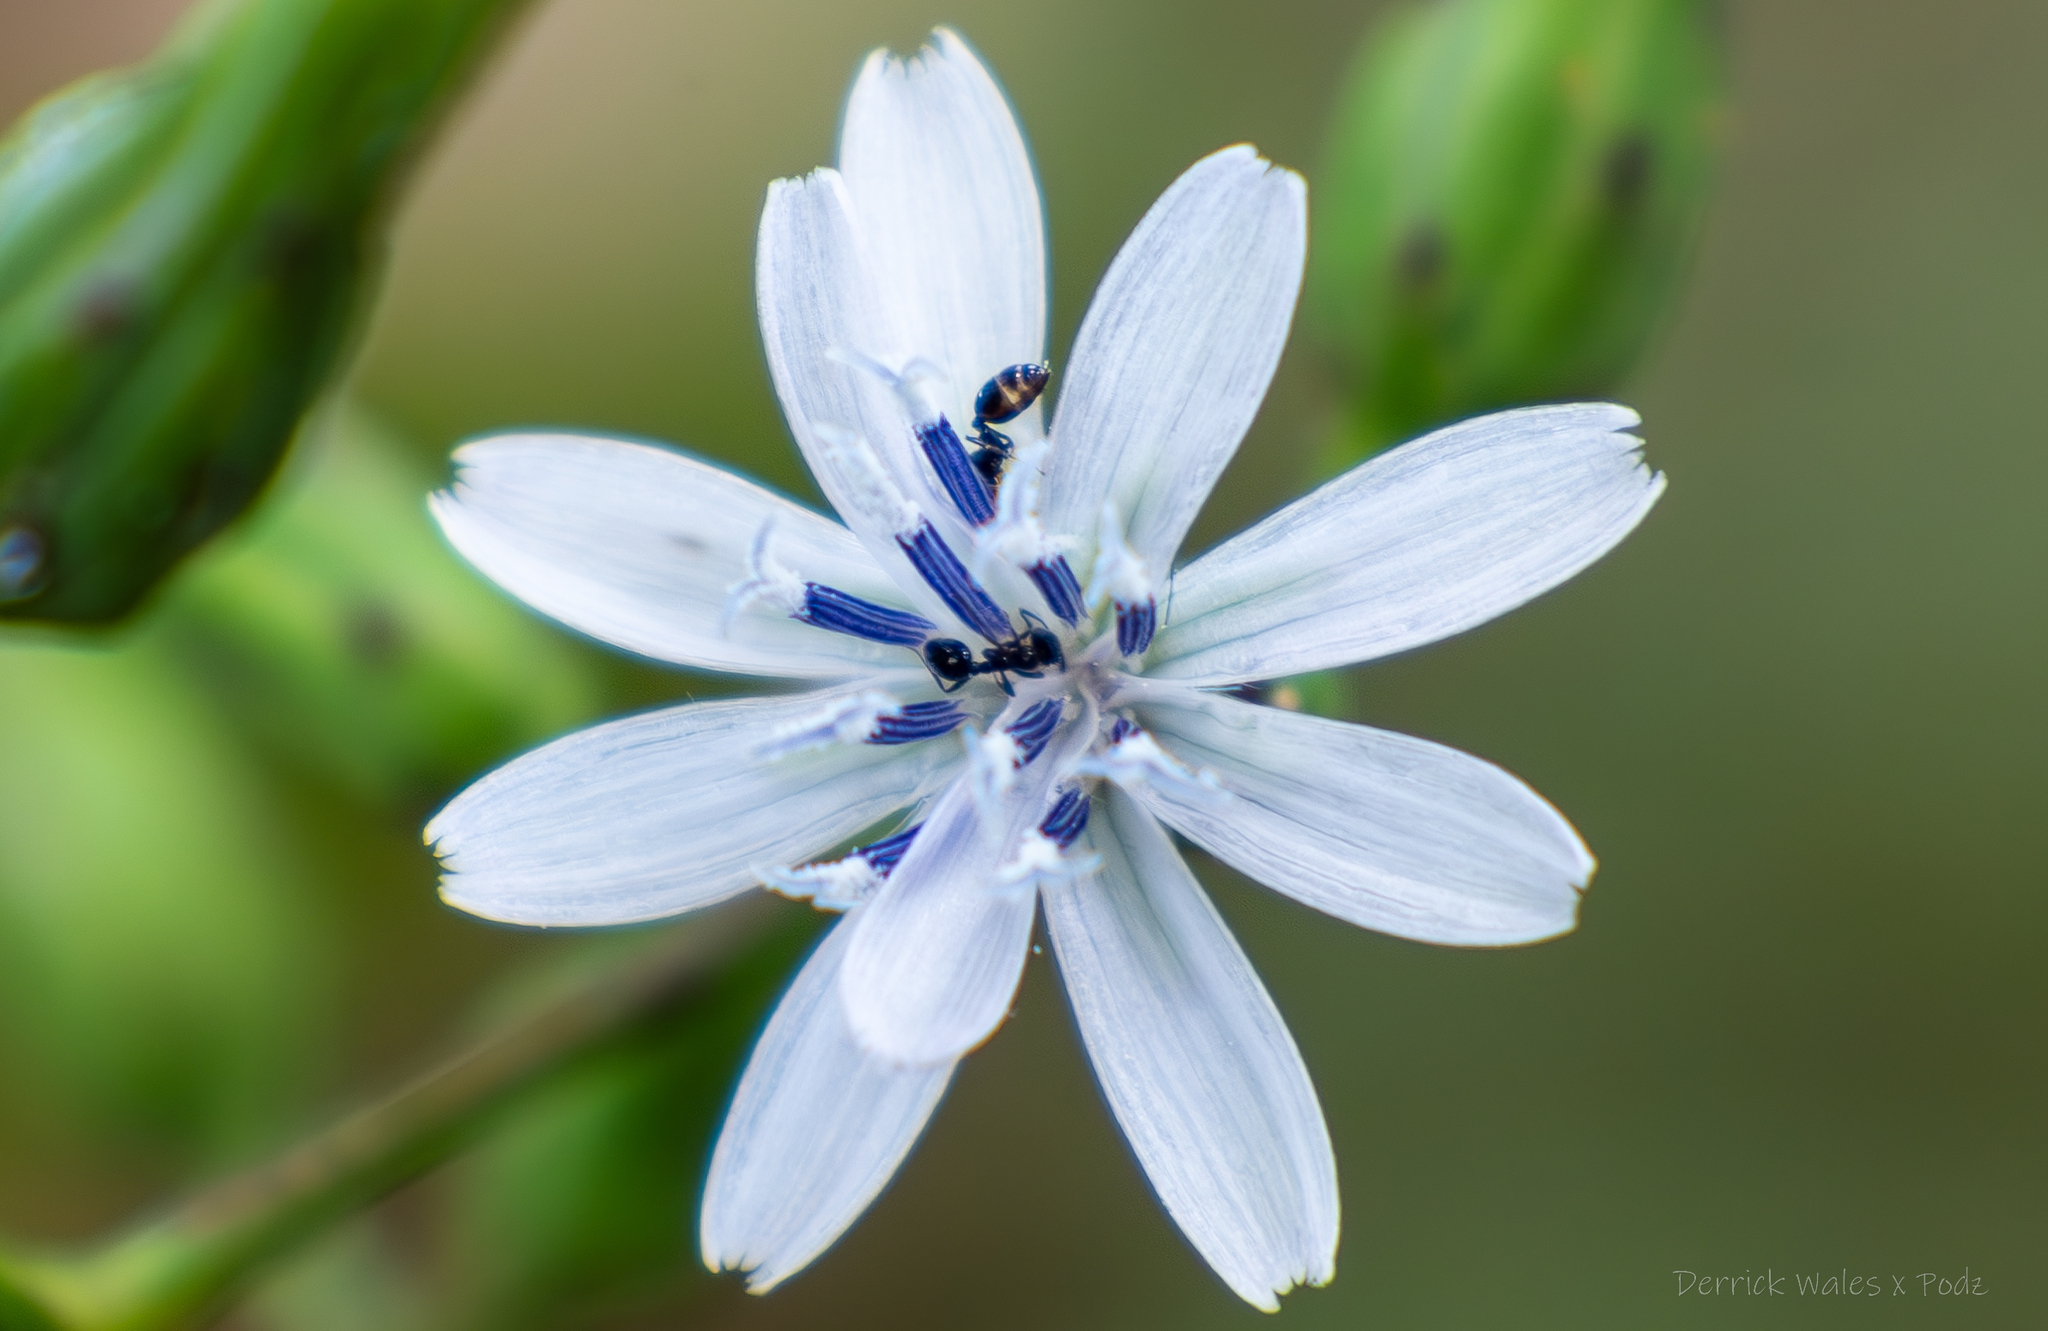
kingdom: Plantae
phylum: Tracheophyta
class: Magnoliopsida
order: Asterales
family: Asteraceae
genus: Lactuca
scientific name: Lactuca floridana
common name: Woodland lettuce
